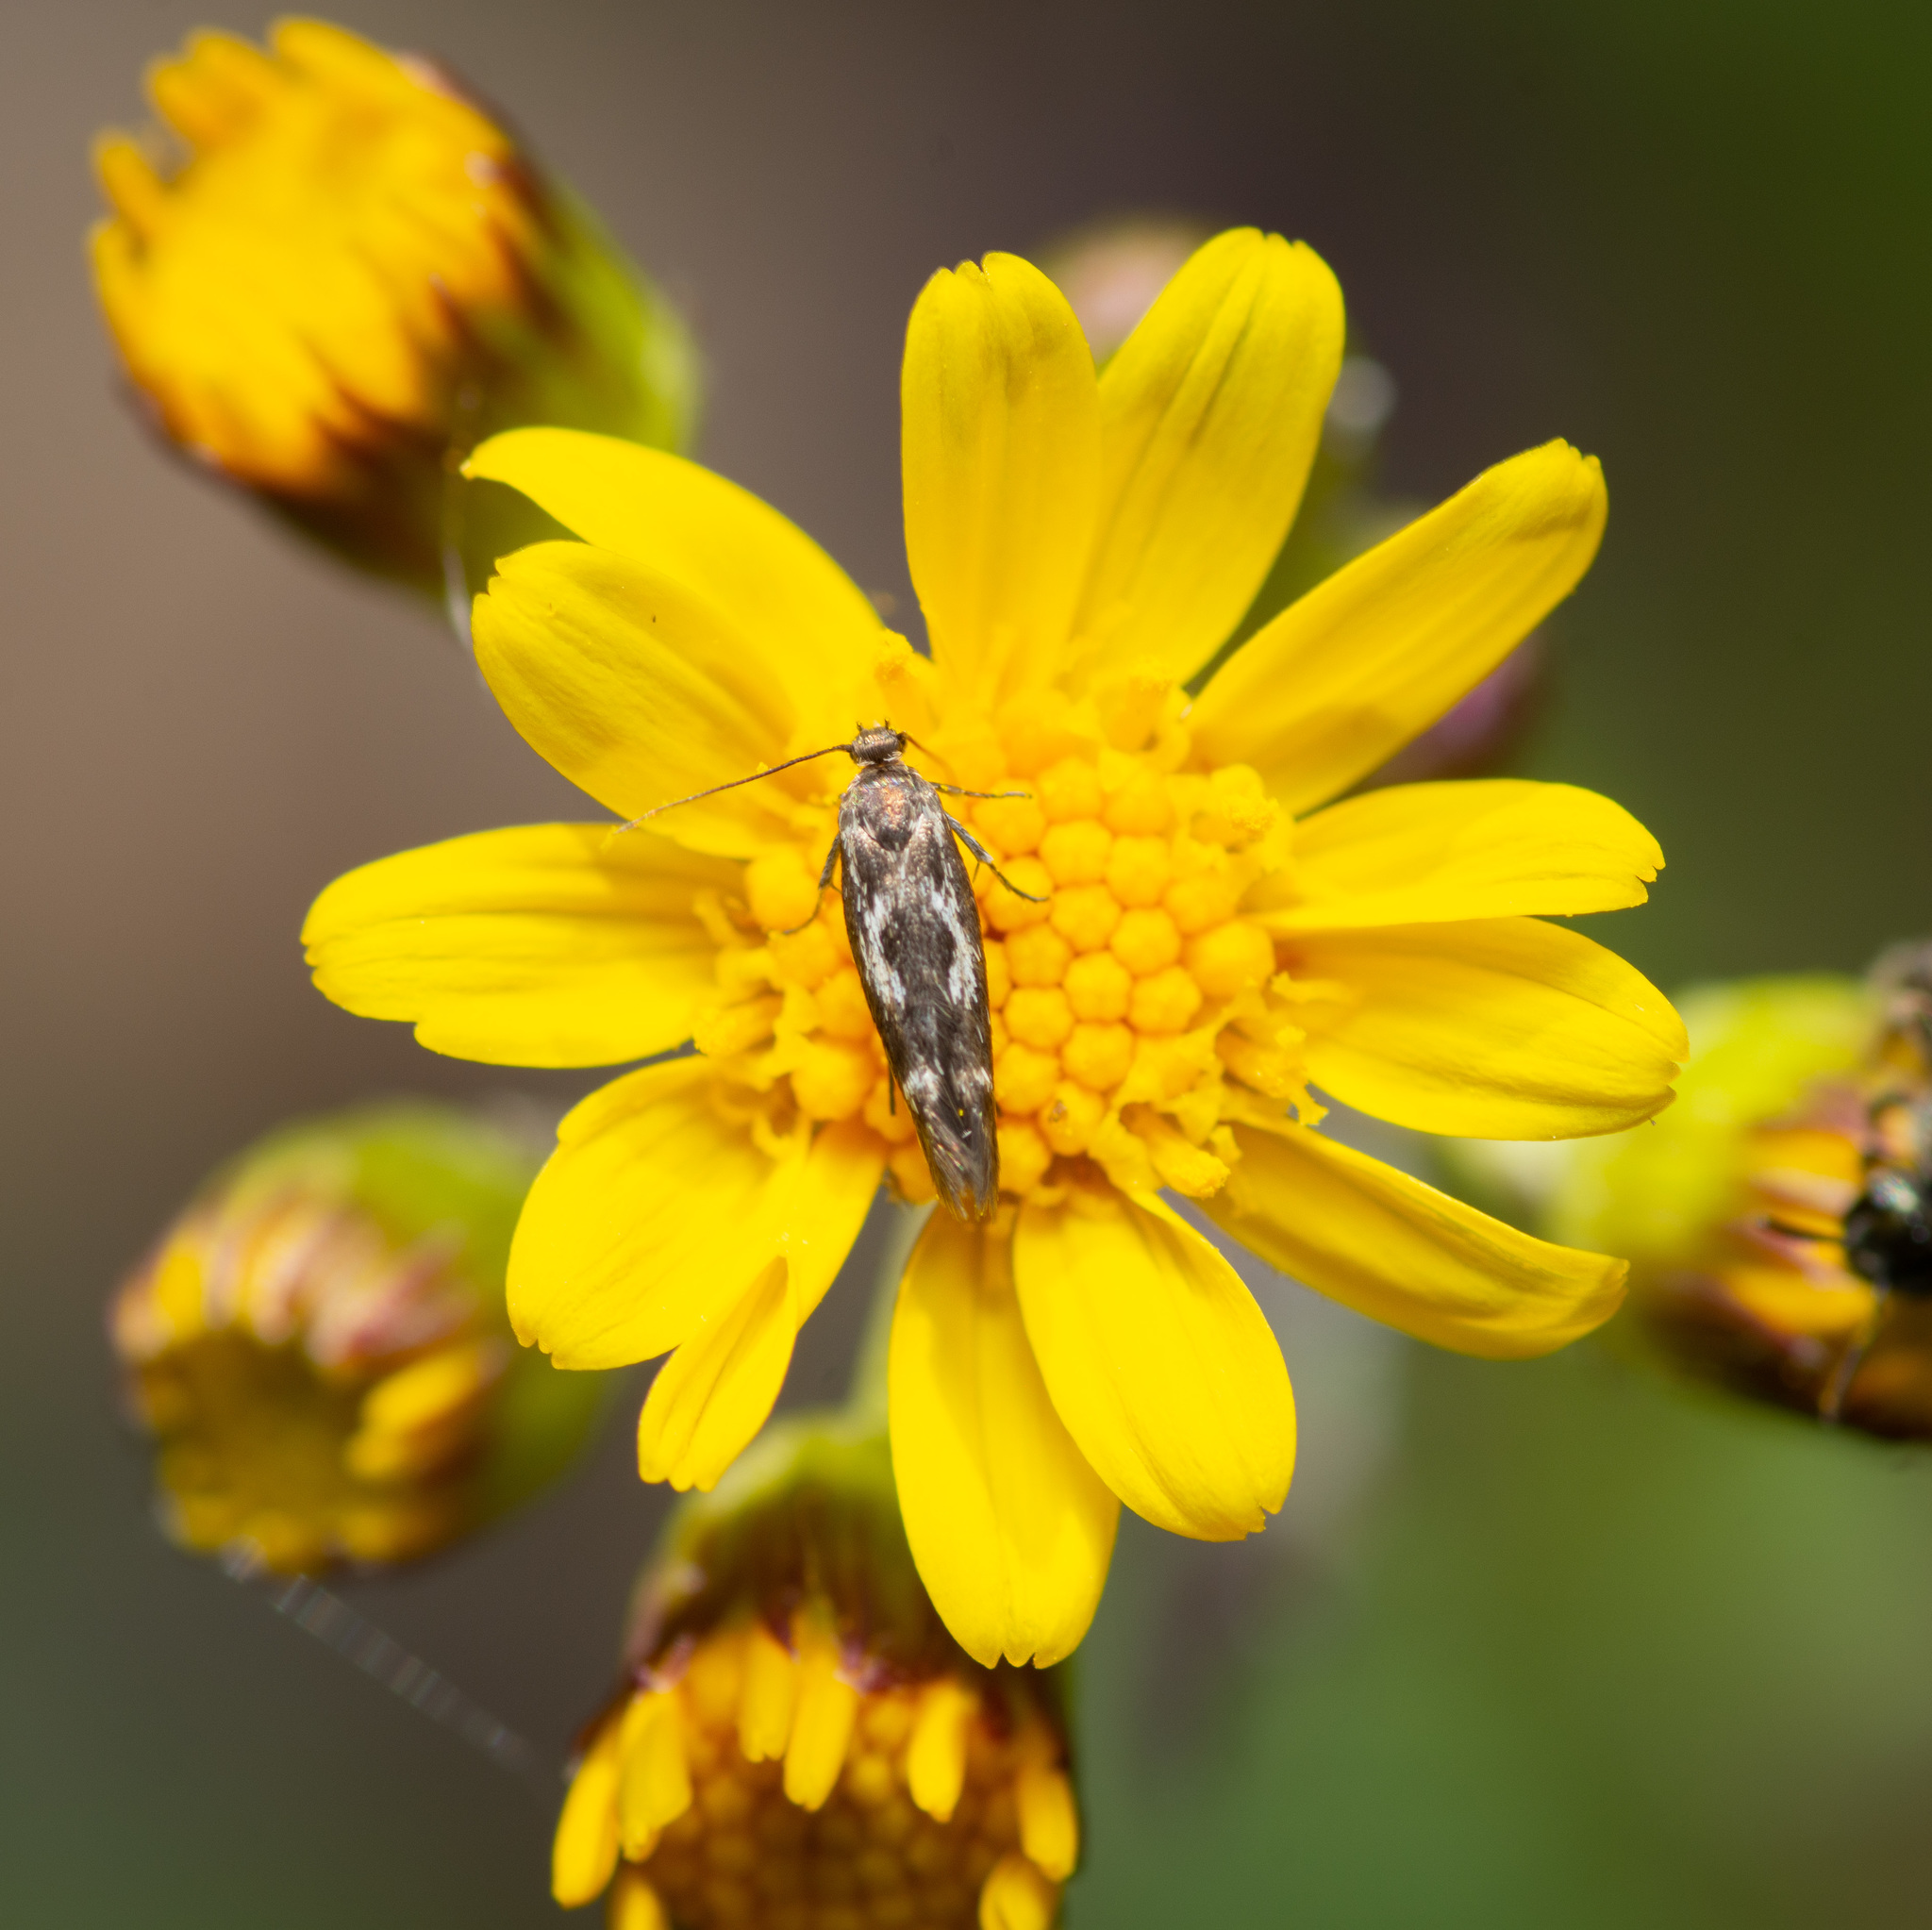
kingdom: Animalia
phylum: Arthropoda
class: Insecta
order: Lepidoptera
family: Scythrididae
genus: Scythris
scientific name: Scythris trivinctella
